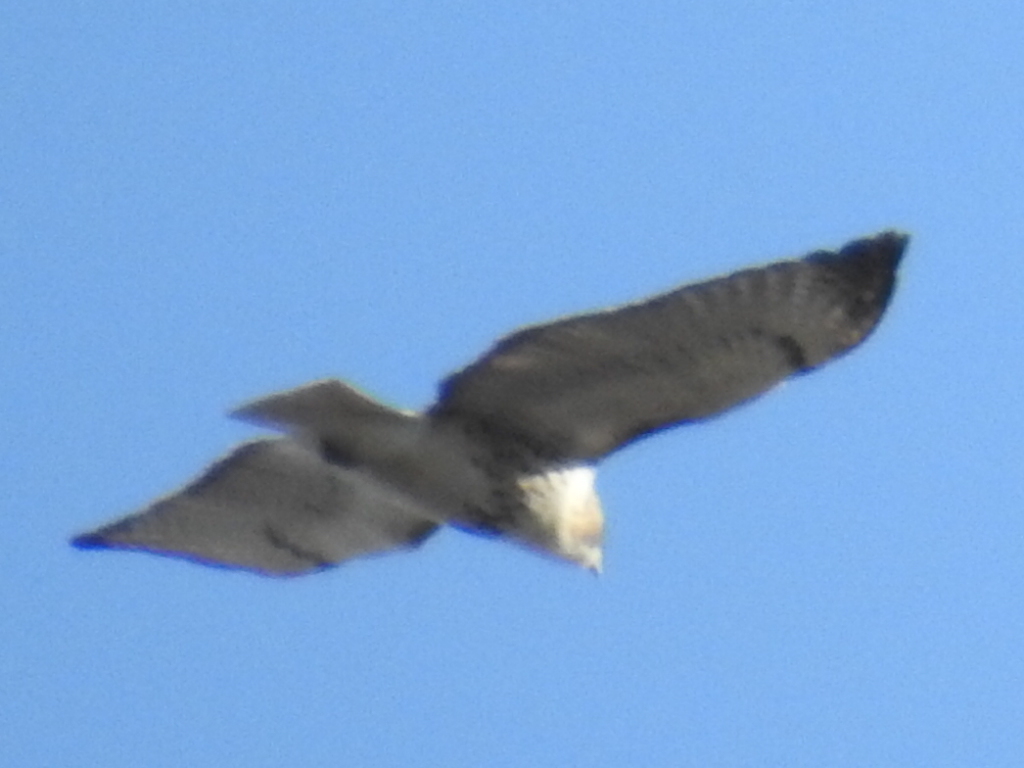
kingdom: Animalia
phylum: Chordata
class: Aves
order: Accipitriformes
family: Accipitridae
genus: Buteo
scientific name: Buteo jamaicensis
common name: Red-tailed hawk
